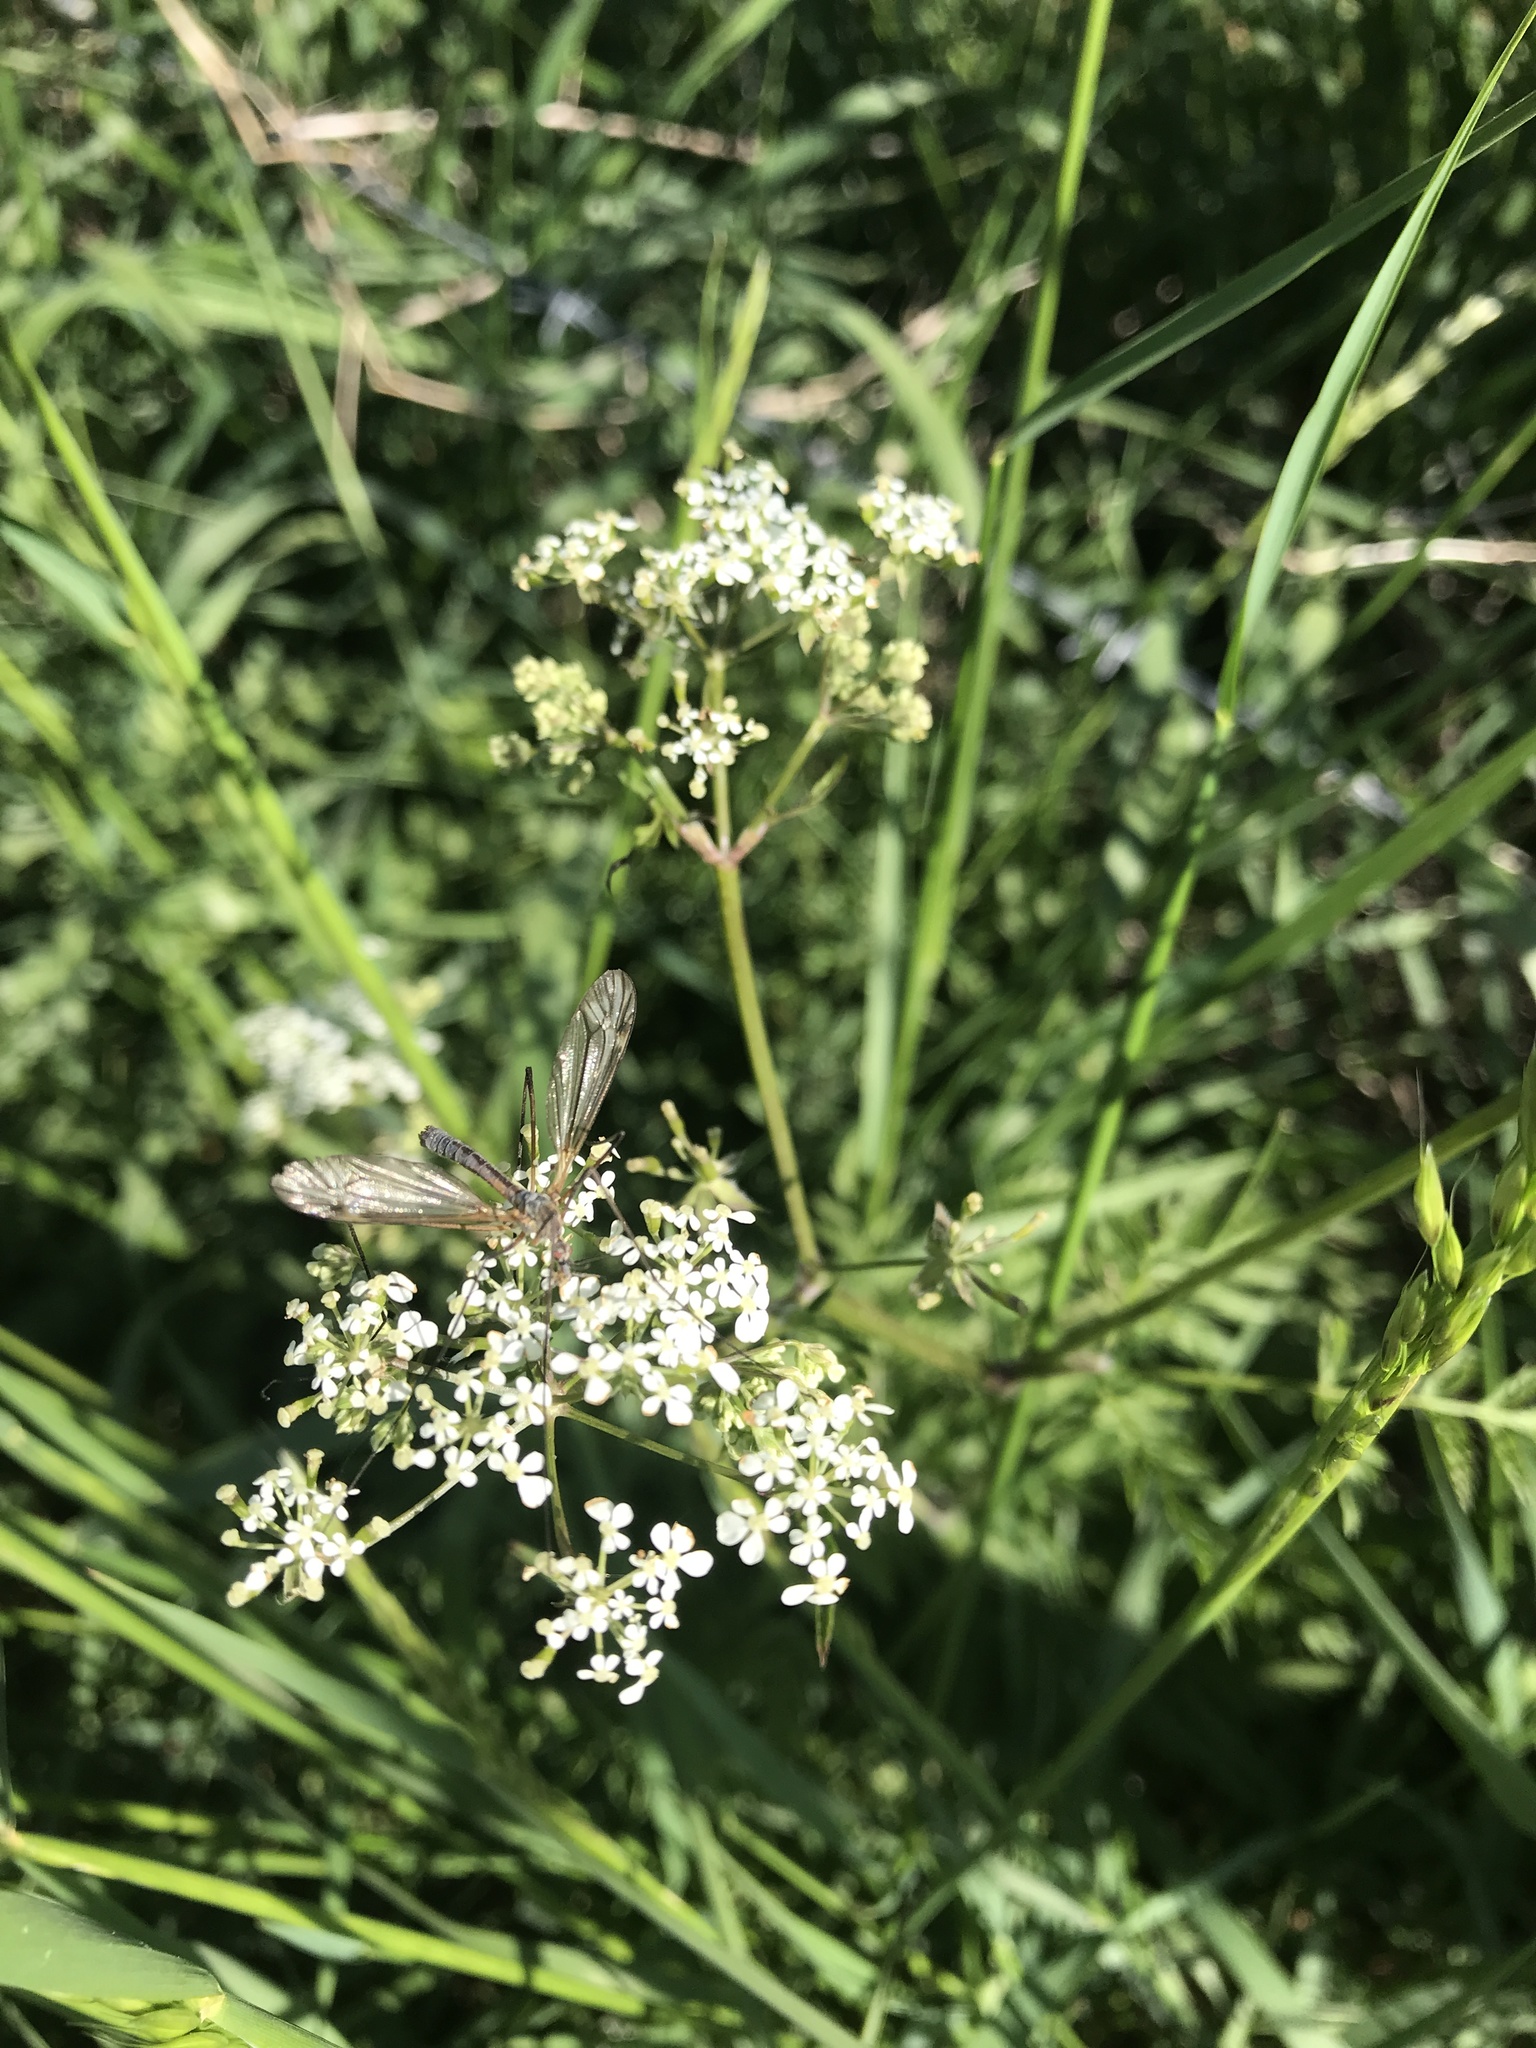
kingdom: Plantae
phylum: Tracheophyta
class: Magnoliopsida
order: Apiales
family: Apiaceae
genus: Anthriscus
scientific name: Anthriscus sylvestris
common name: Cow parsley
